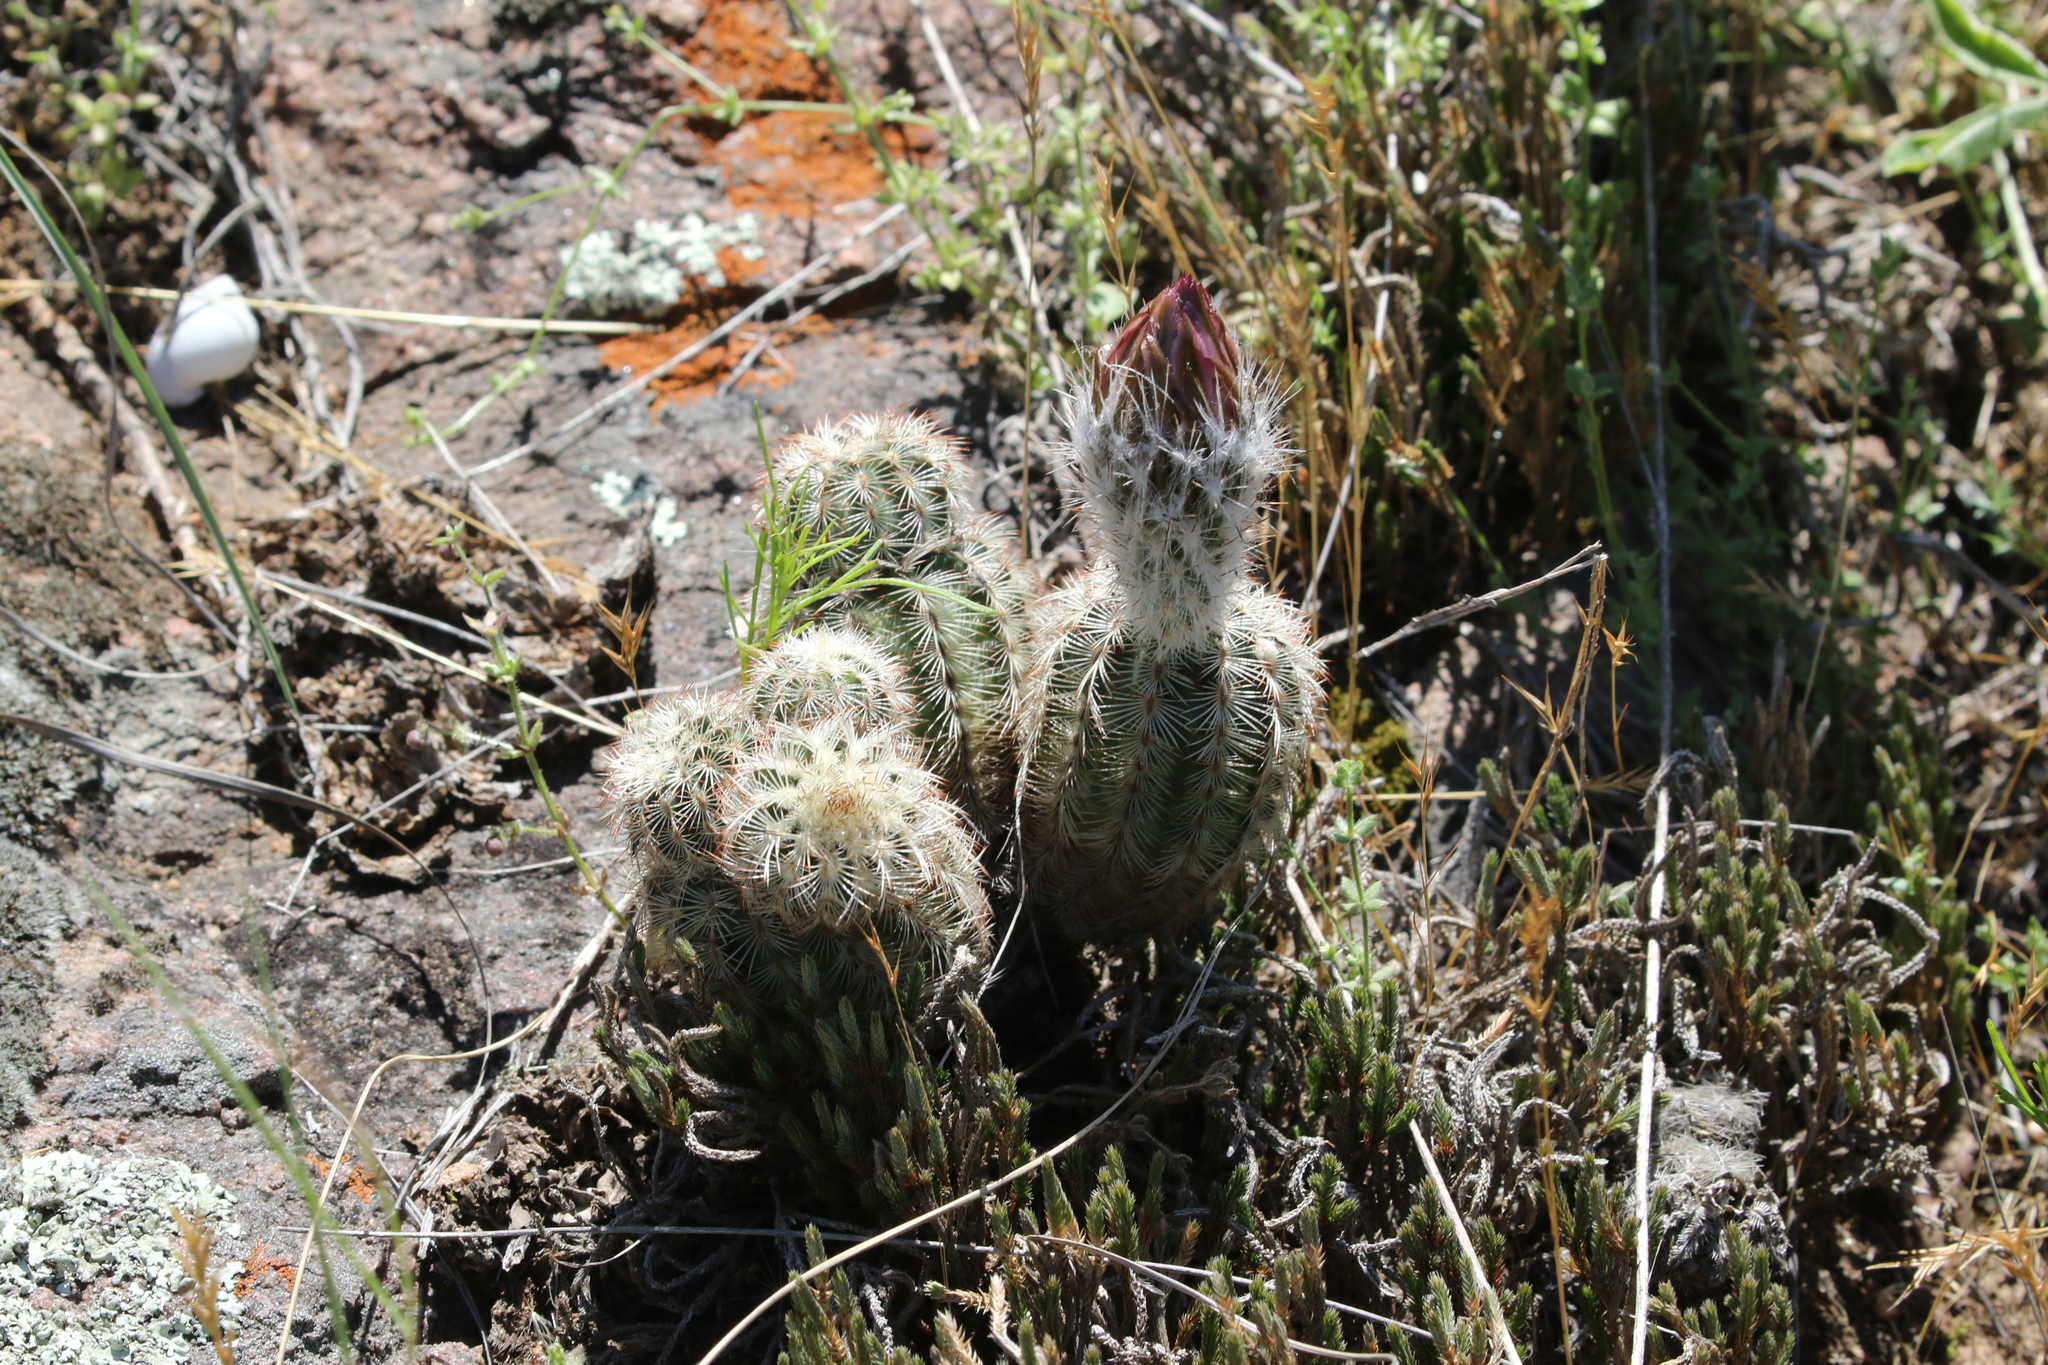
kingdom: Plantae
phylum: Tracheophyta
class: Magnoliopsida
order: Caryophyllales
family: Cactaceae
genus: Echinocereus
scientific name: Echinocereus reichenbachii
